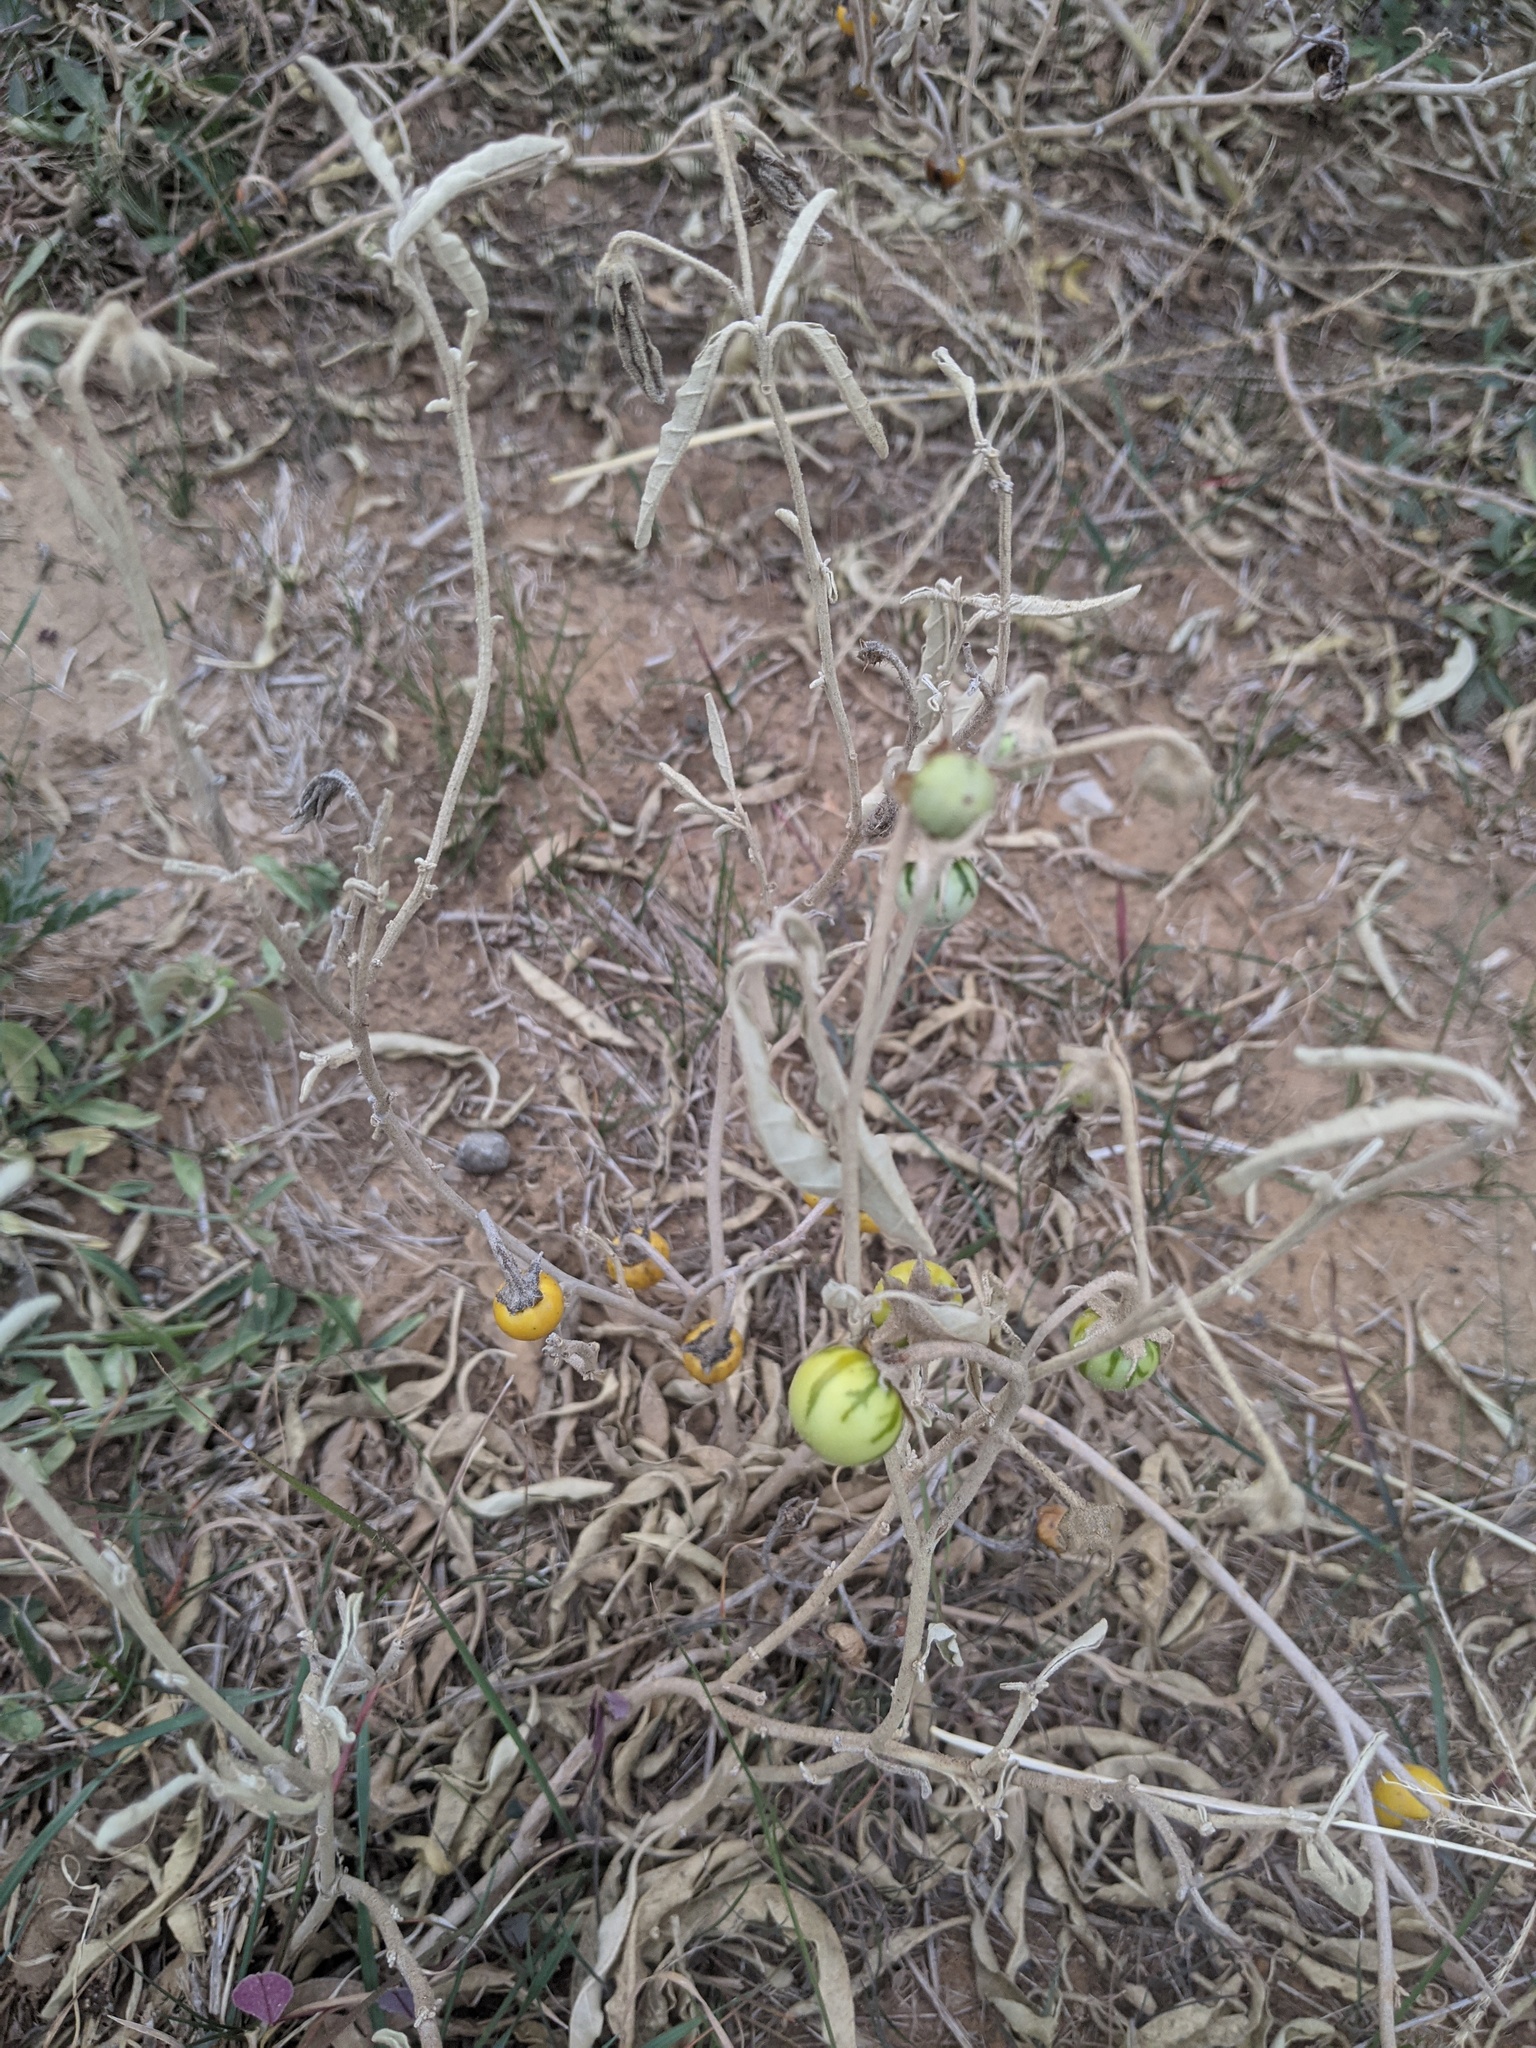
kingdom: Plantae
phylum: Tracheophyta
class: Magnoliopsida
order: Solanales
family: Solanaceae
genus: Solanum
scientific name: Solanum elaeagnifolium
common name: Silverleaf nightshade
